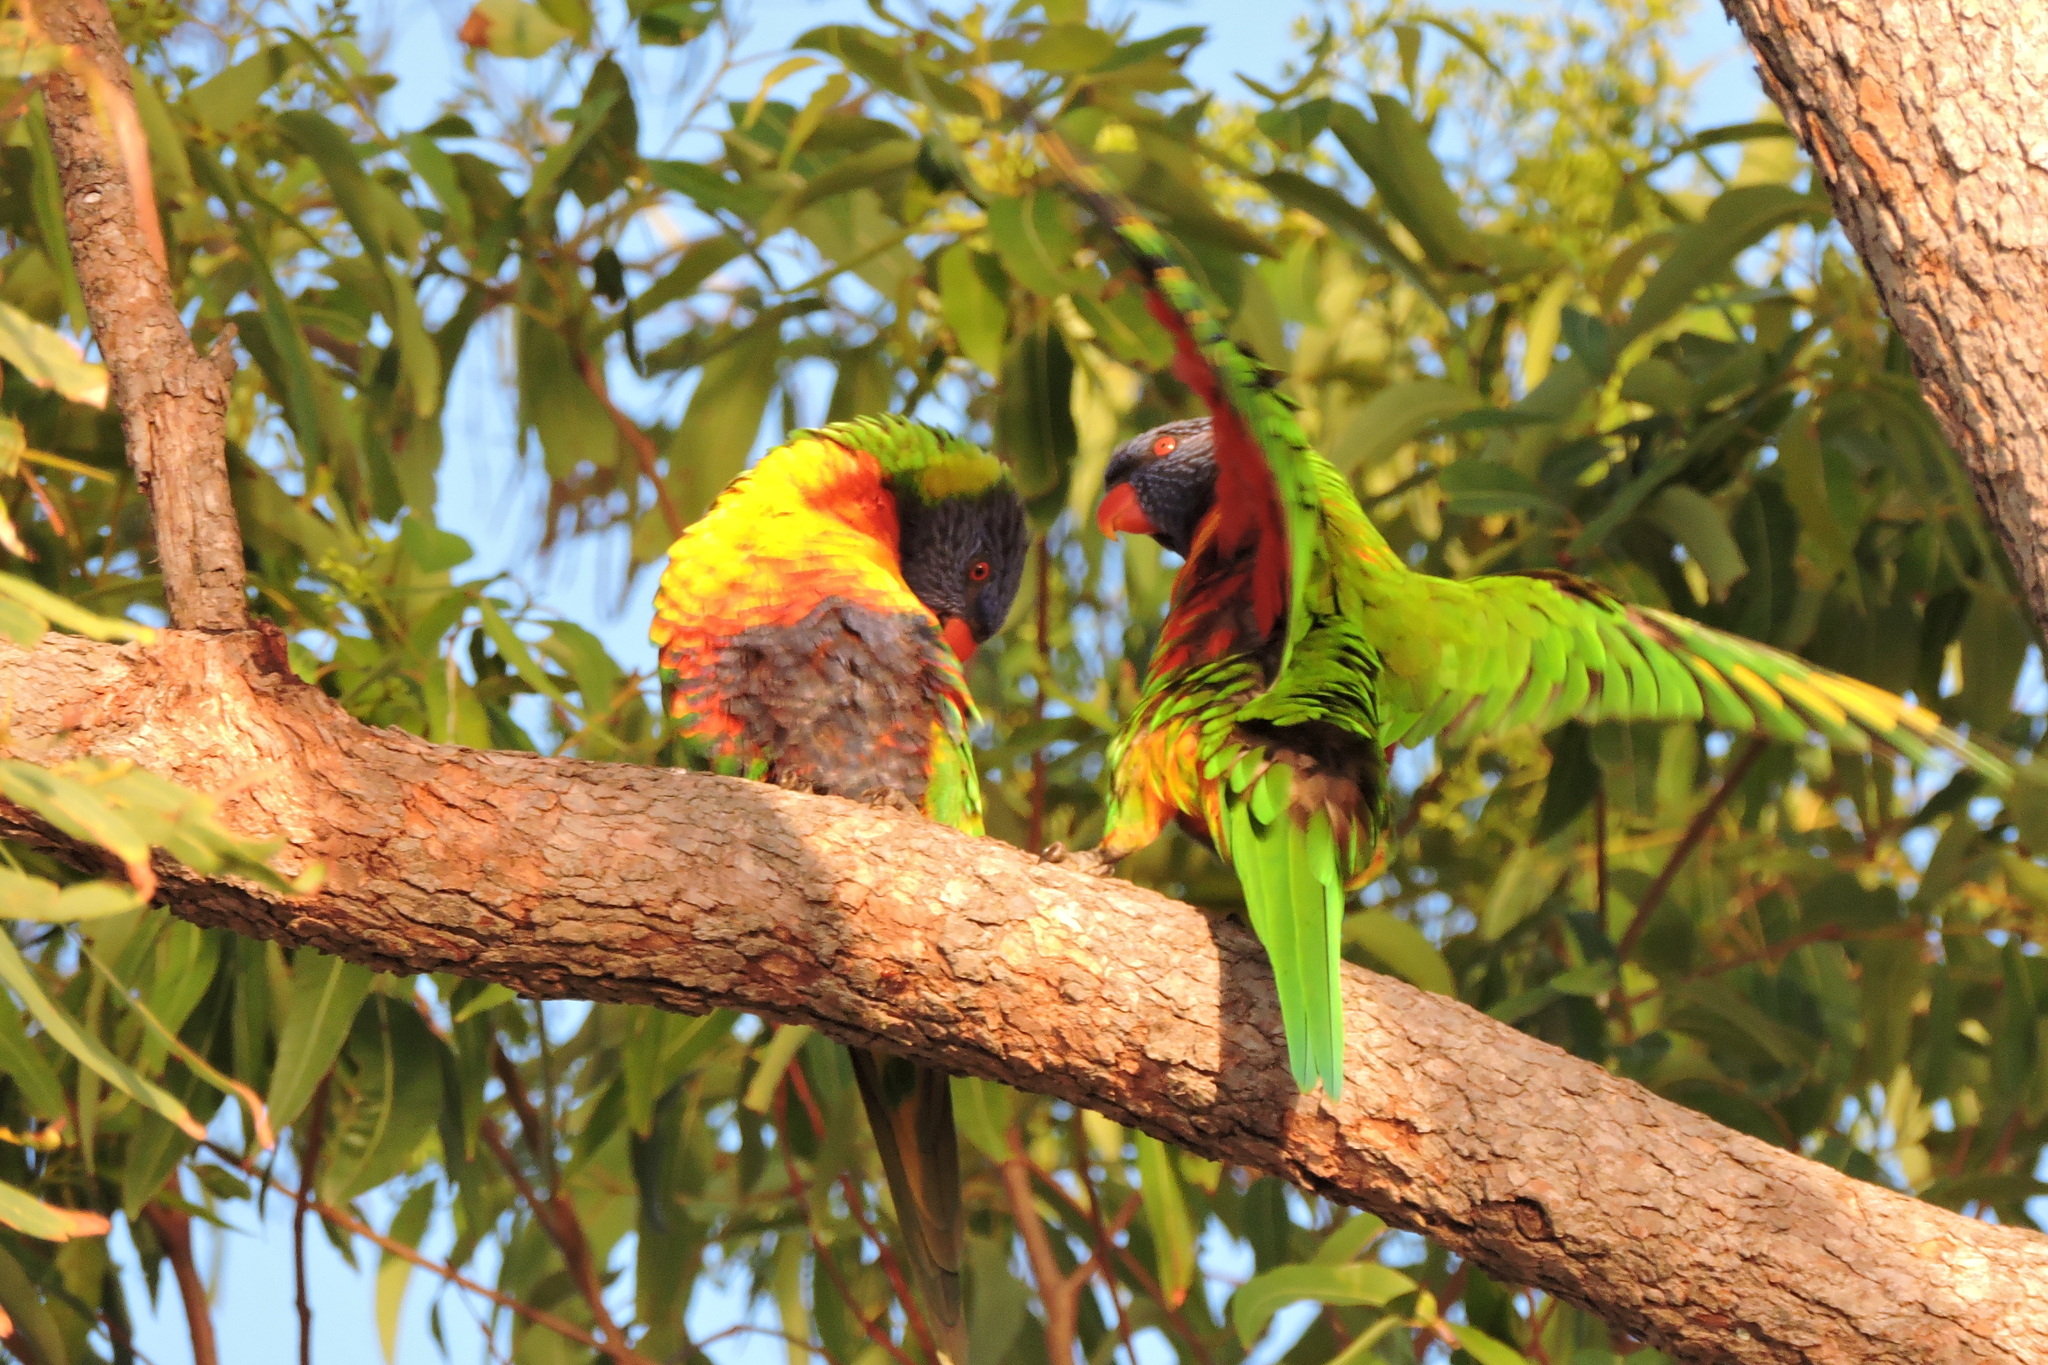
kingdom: Animalia
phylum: Chordata
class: Aves
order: Psittaciformes
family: Psittacidae
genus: Trichoglossus
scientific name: Trichoglossus haematodus
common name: Coconut lorikeet
